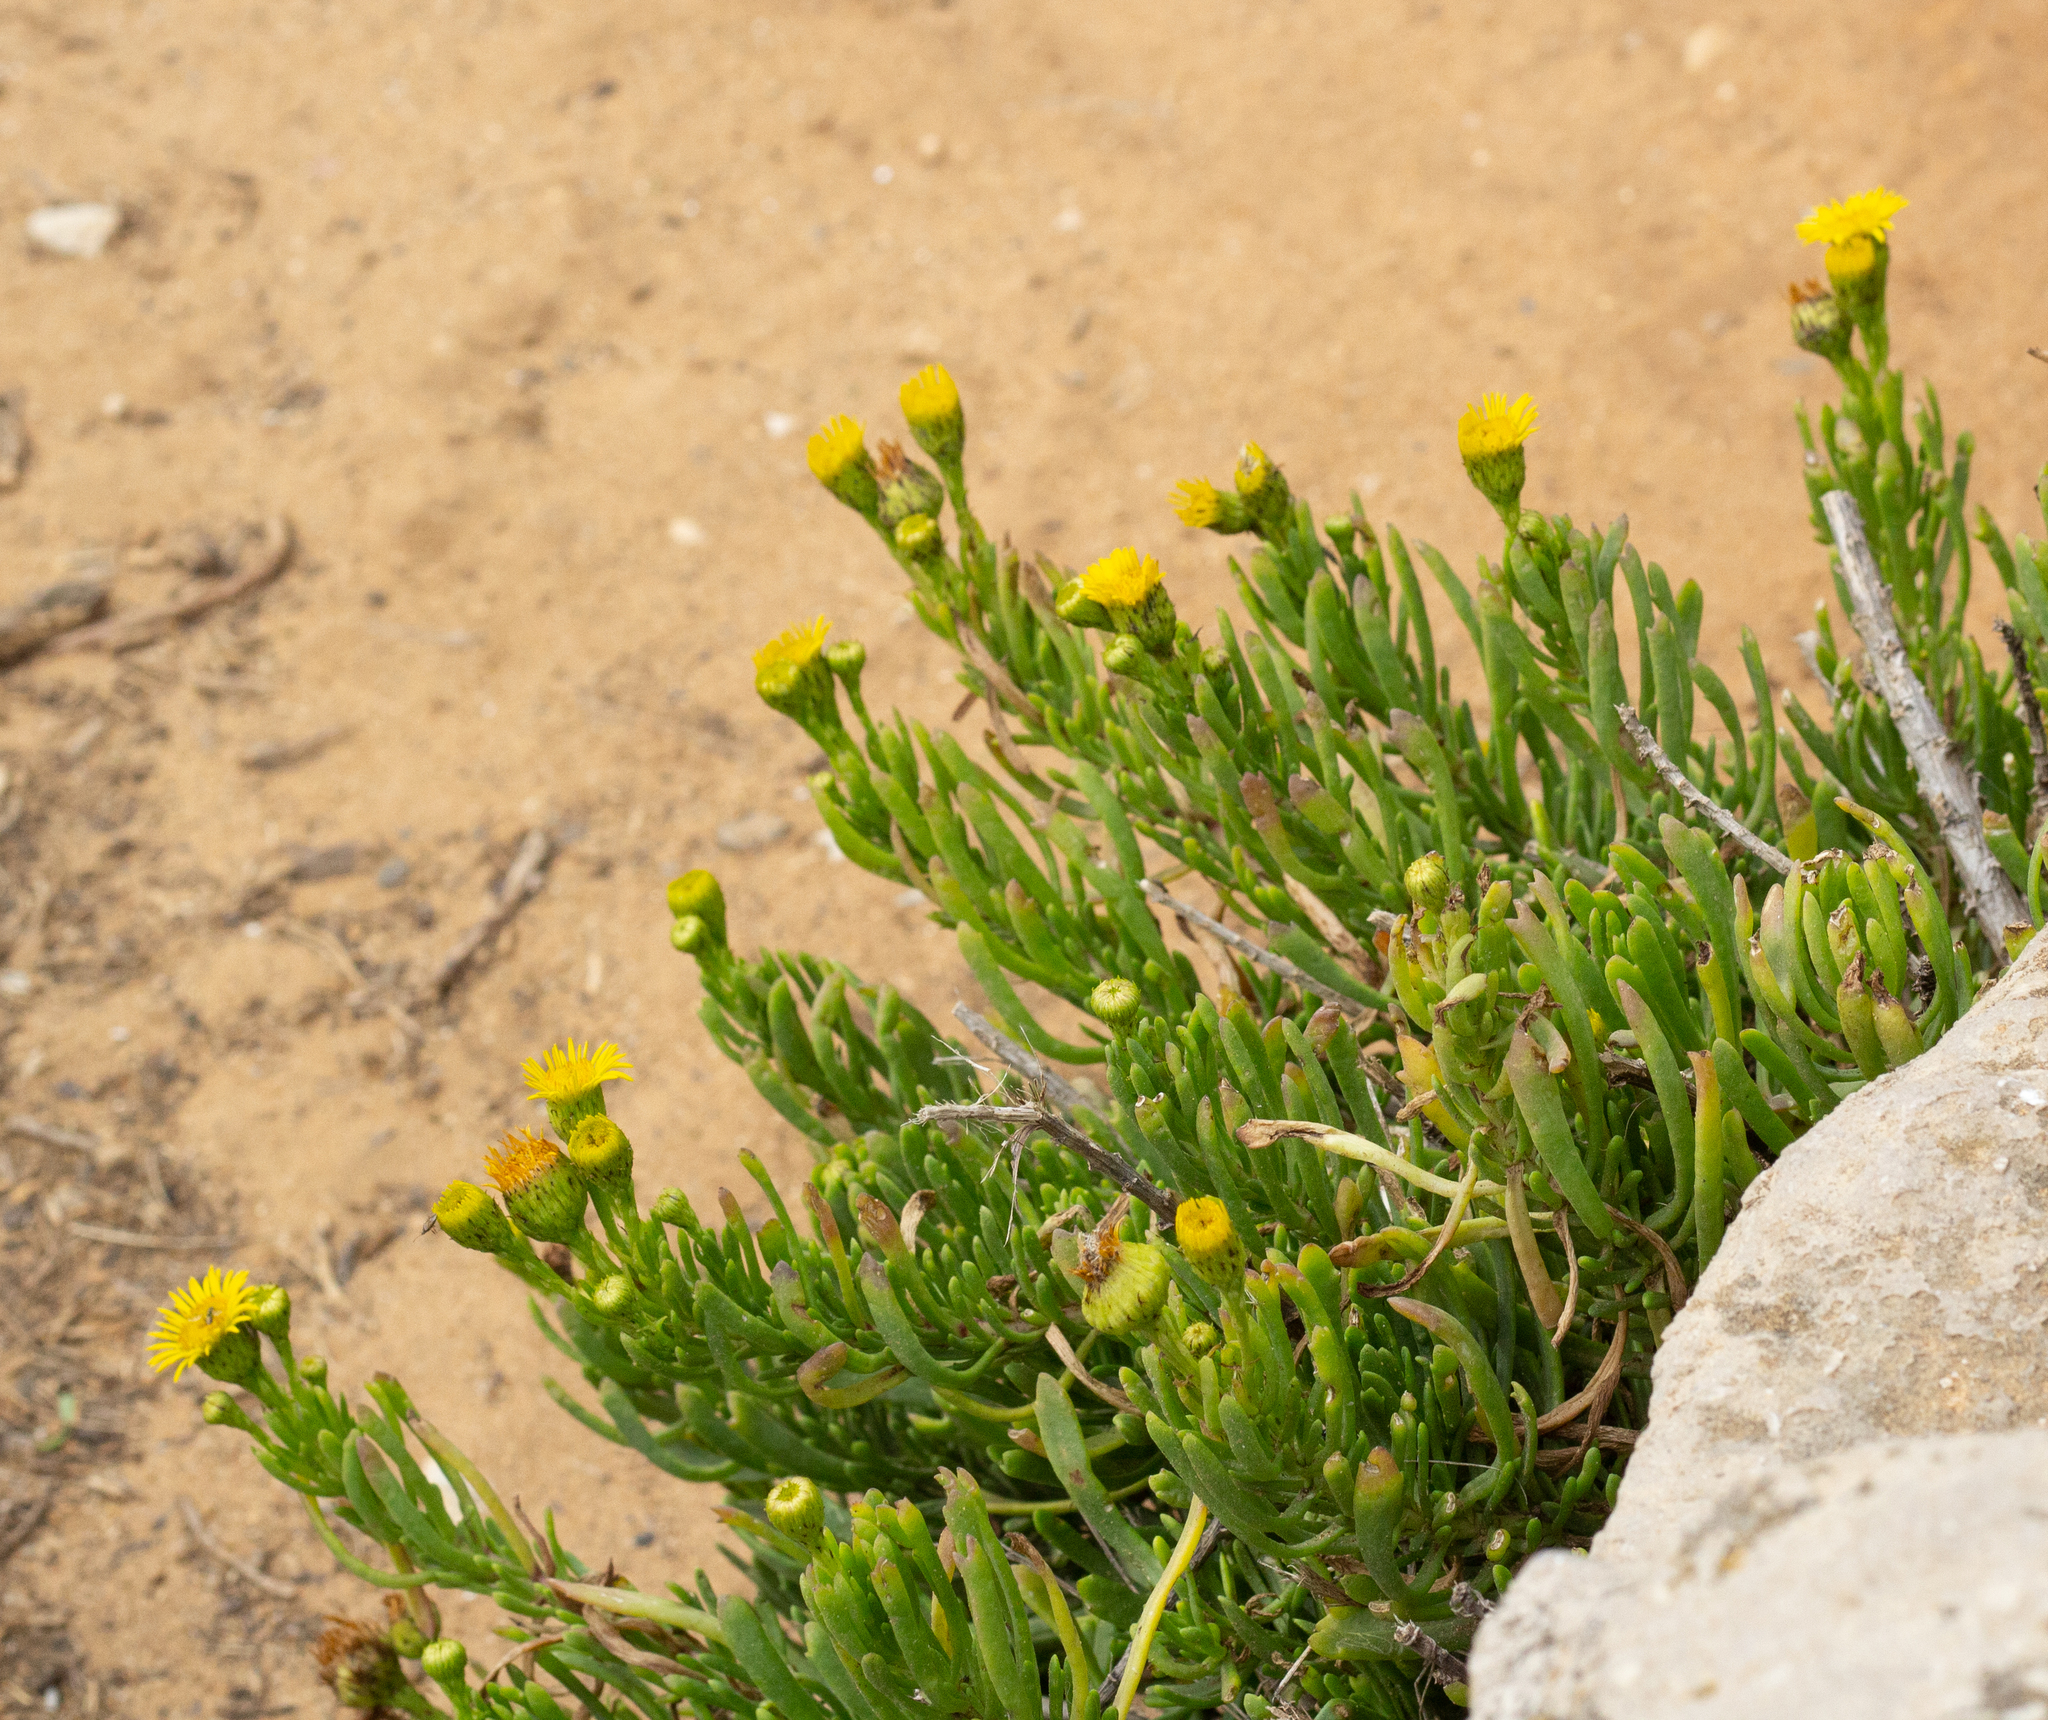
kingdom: Plantae
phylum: Tracheophyta
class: Magnoliopsida
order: Asterales
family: Asteraceae
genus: Limbarda
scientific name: Limbarda crithmoides
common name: Golden samphire
